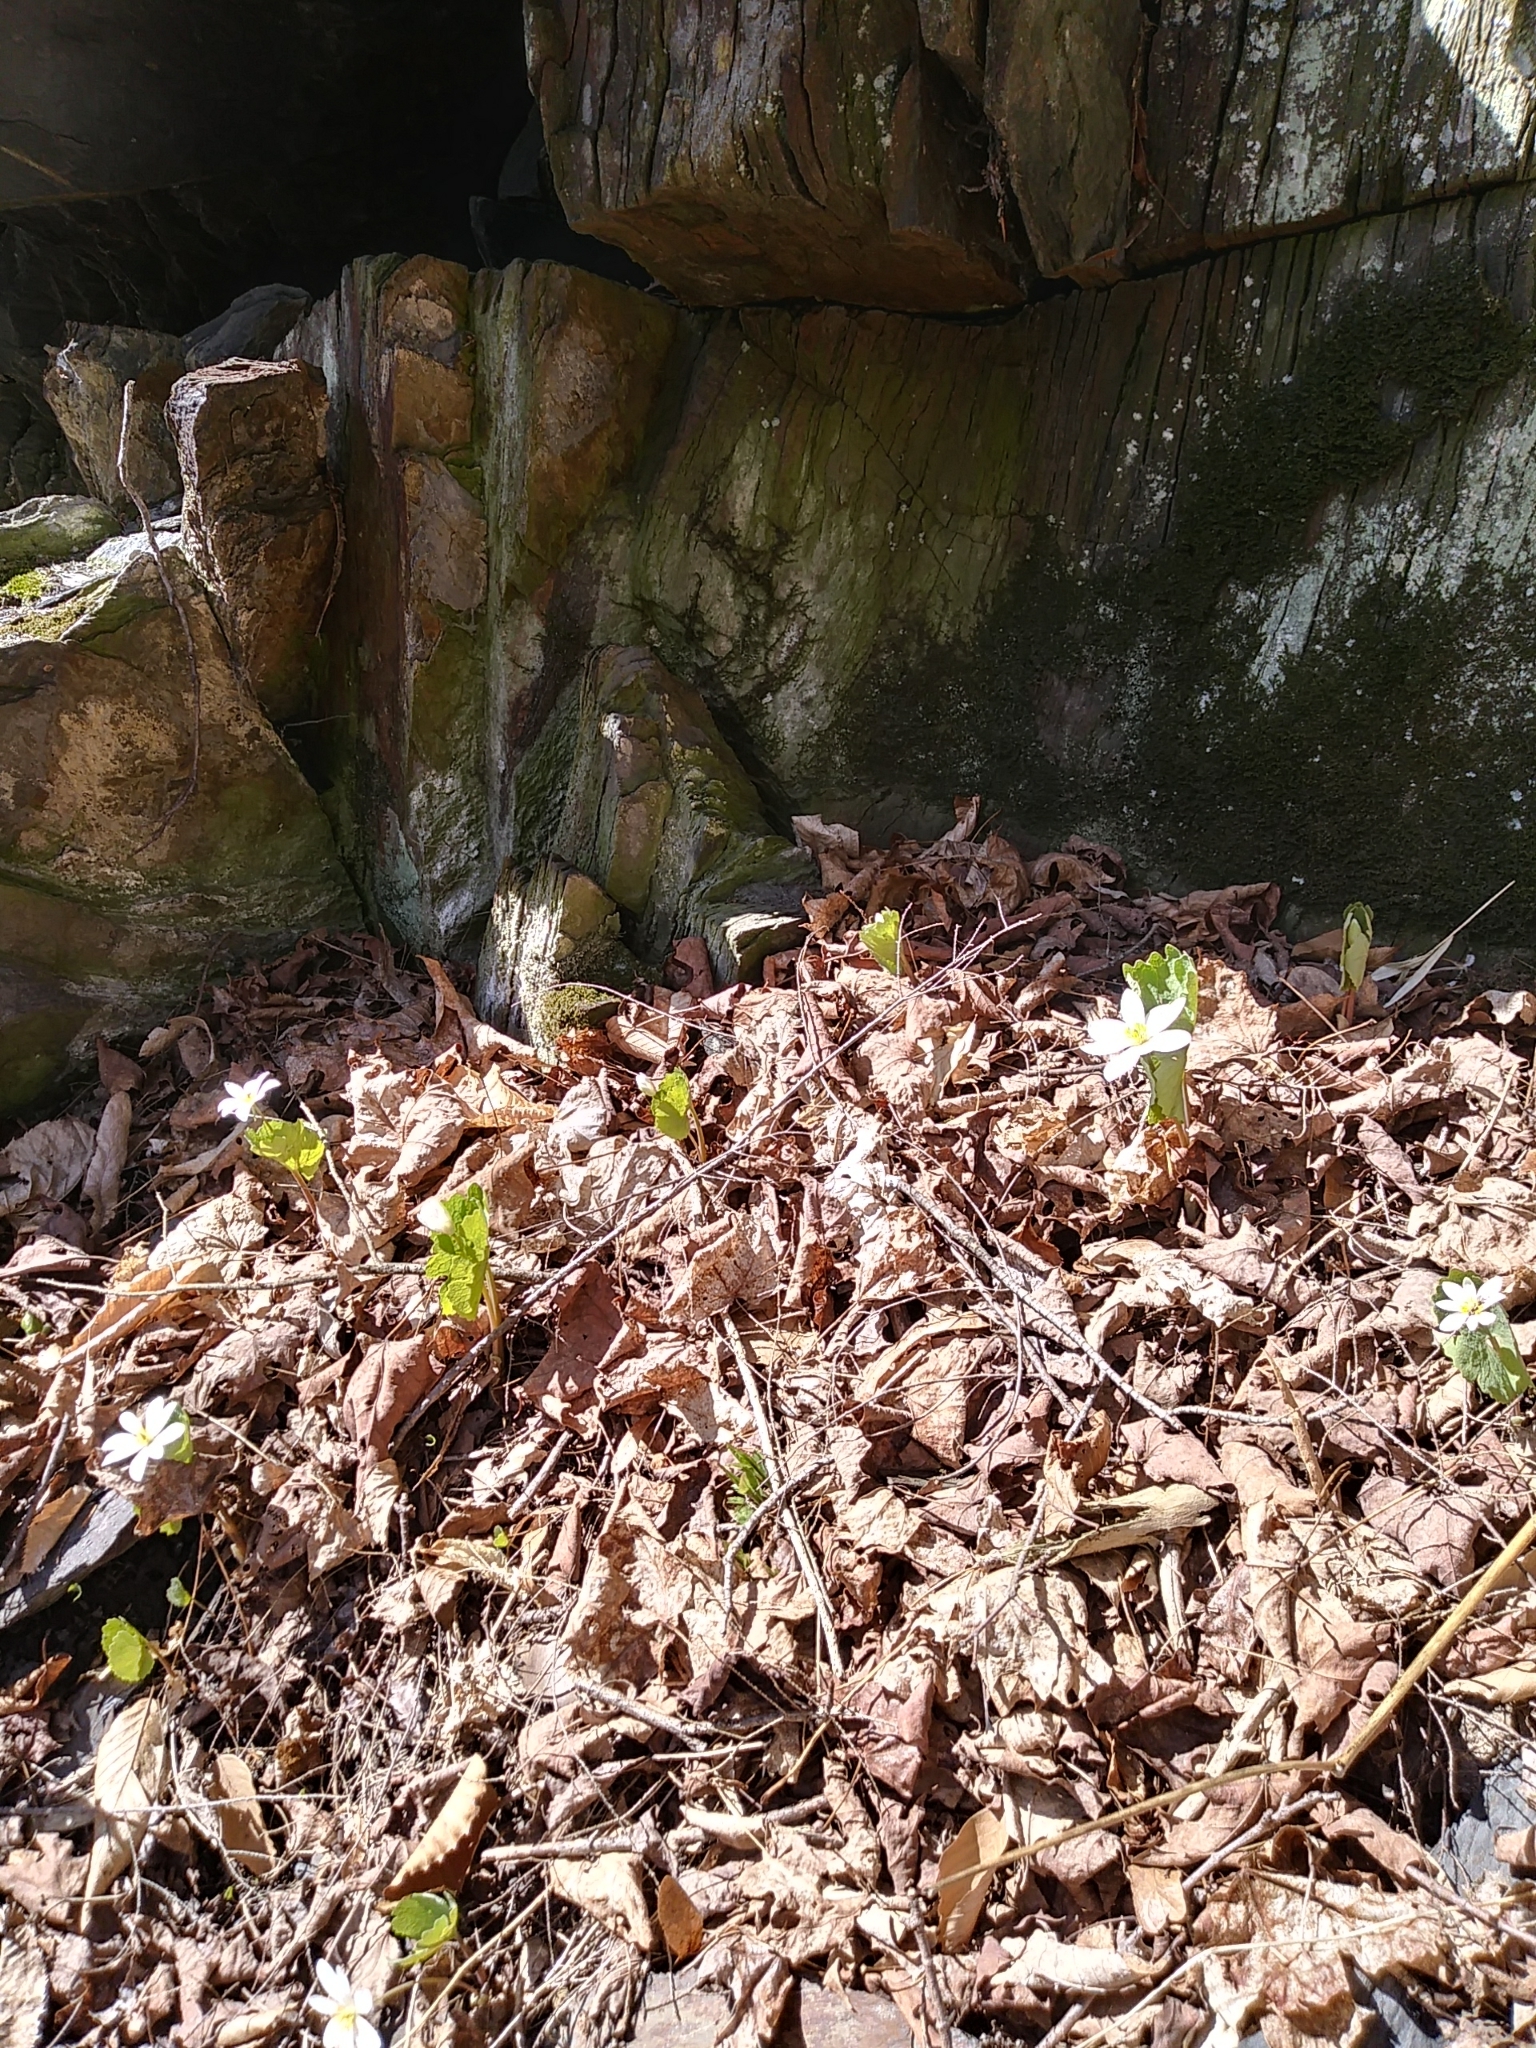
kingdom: Plantae
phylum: Tracheophyta
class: Magnoliopsida
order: Ranunculales
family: Papaveraceae
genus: Sanguinaria
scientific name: Sanguinaria canadensis
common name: Bloodroot
